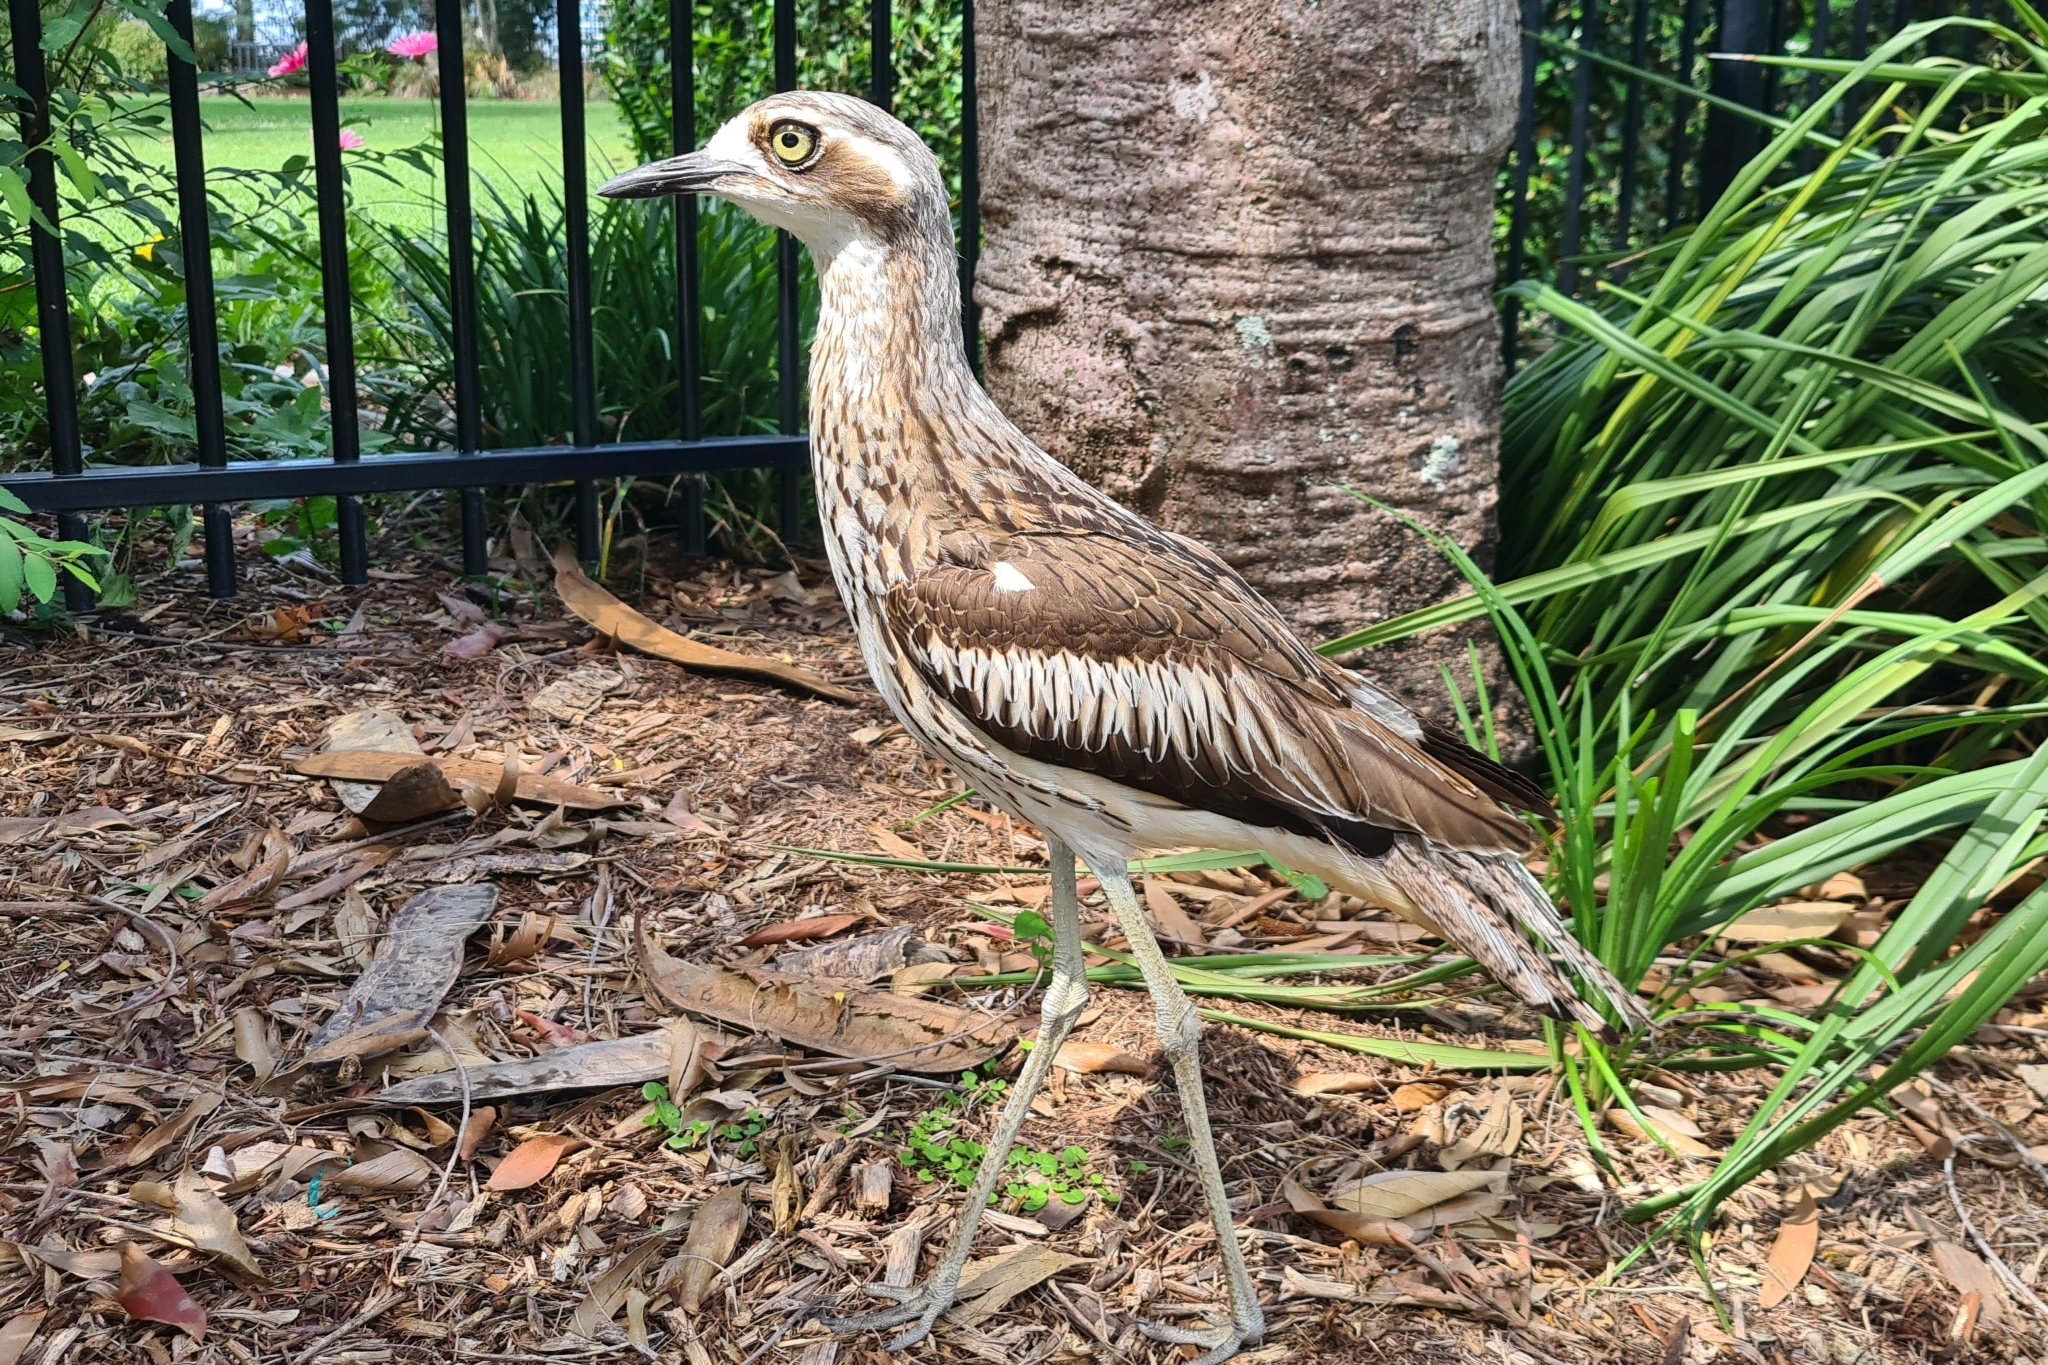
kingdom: Animalia
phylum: Chordata
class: Aves
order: Charadriiformes
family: Burhinidae
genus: Burhinus
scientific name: Burhinus grallarius
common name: Bush stone-curlew
